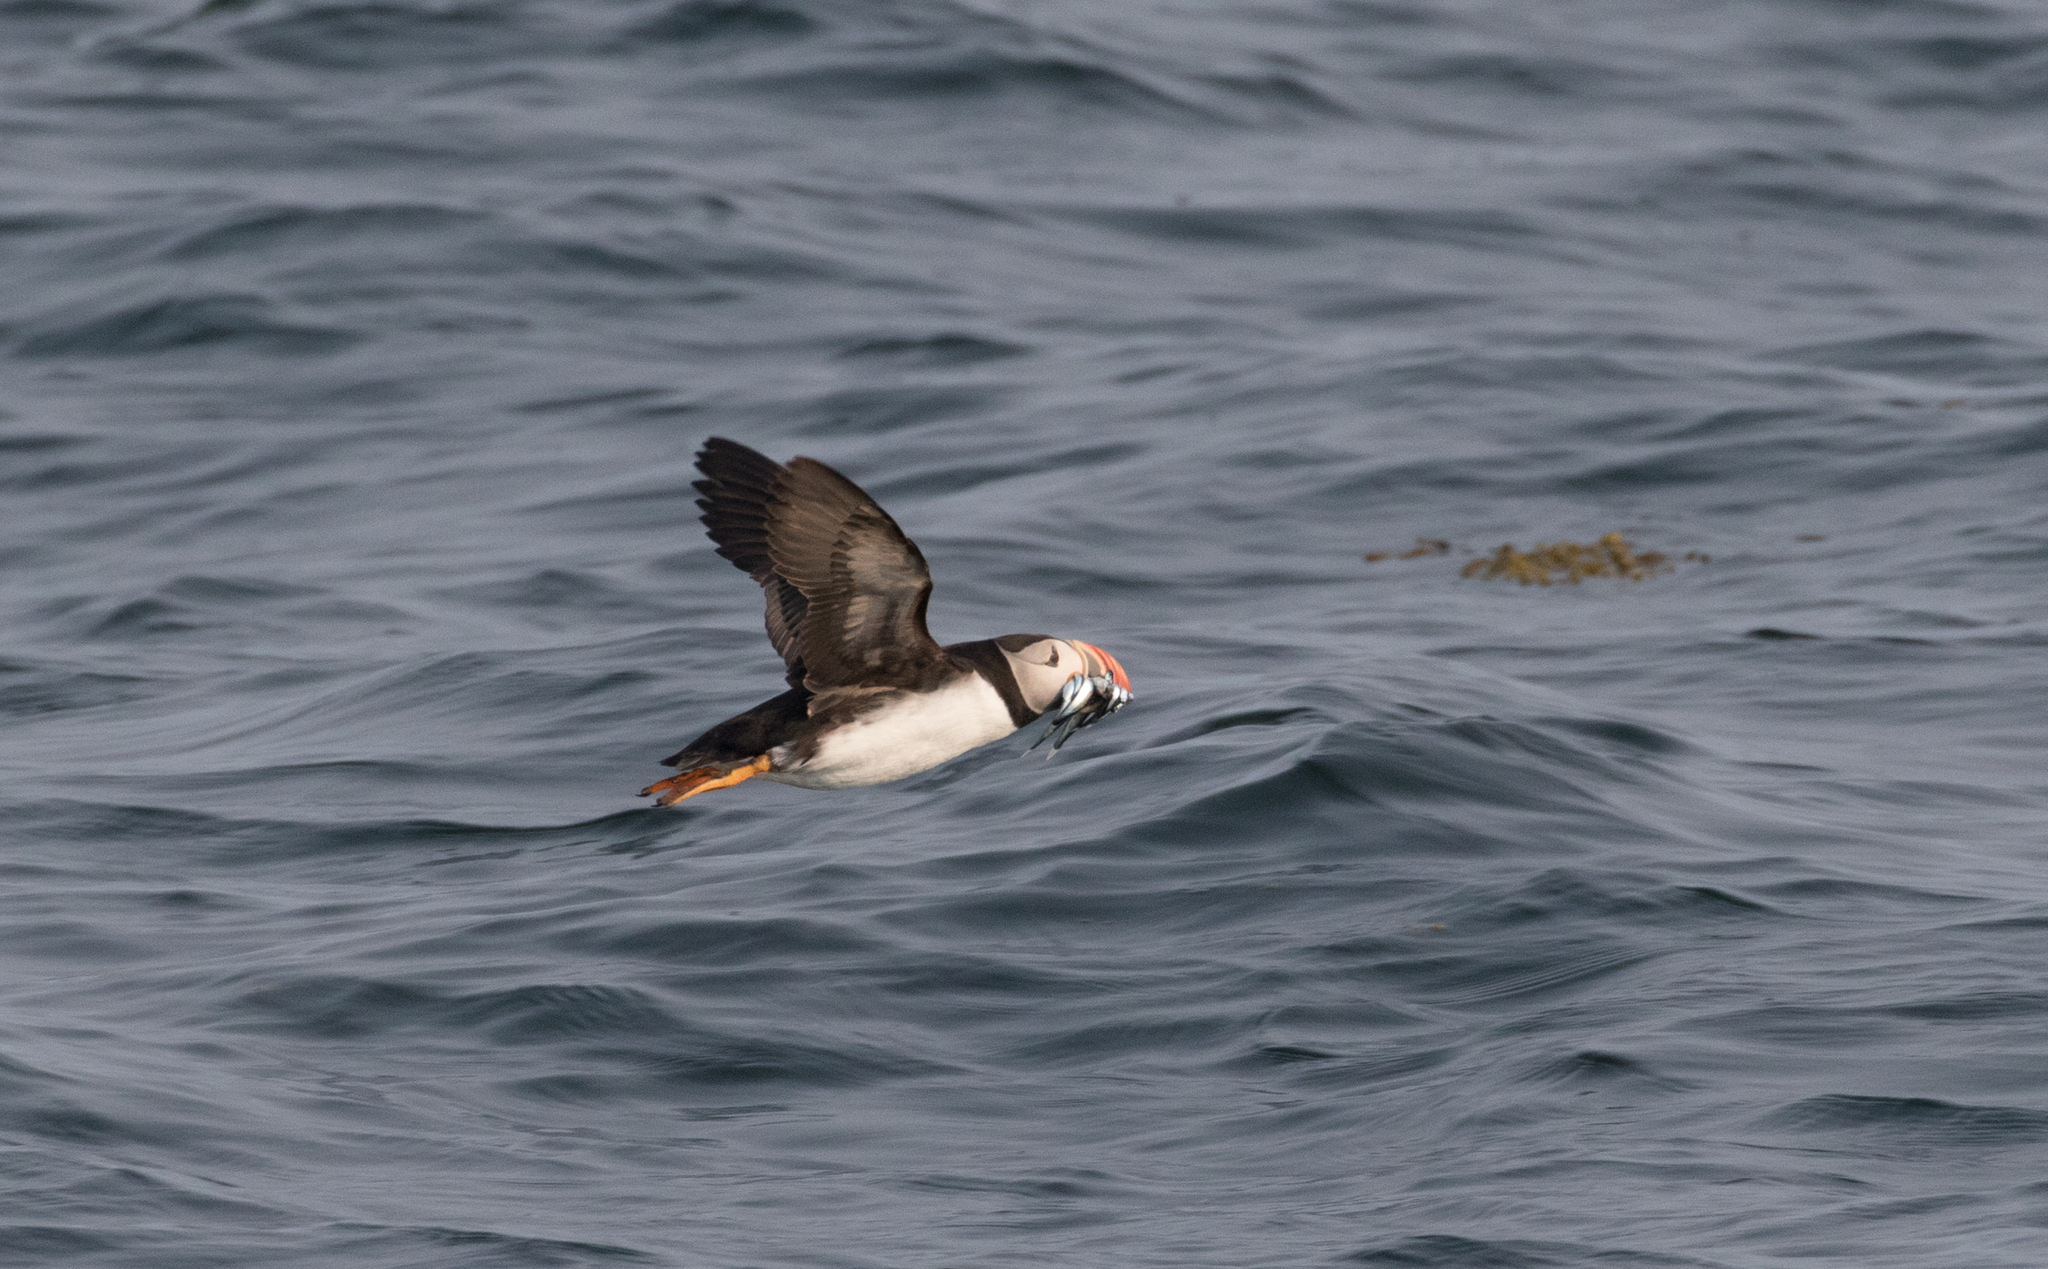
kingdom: Animalia
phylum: Chordata
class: Aves
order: Charadriiformes
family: Alcidae
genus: Fratercula
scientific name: Fratercula arctica
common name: Atlantic puffin
